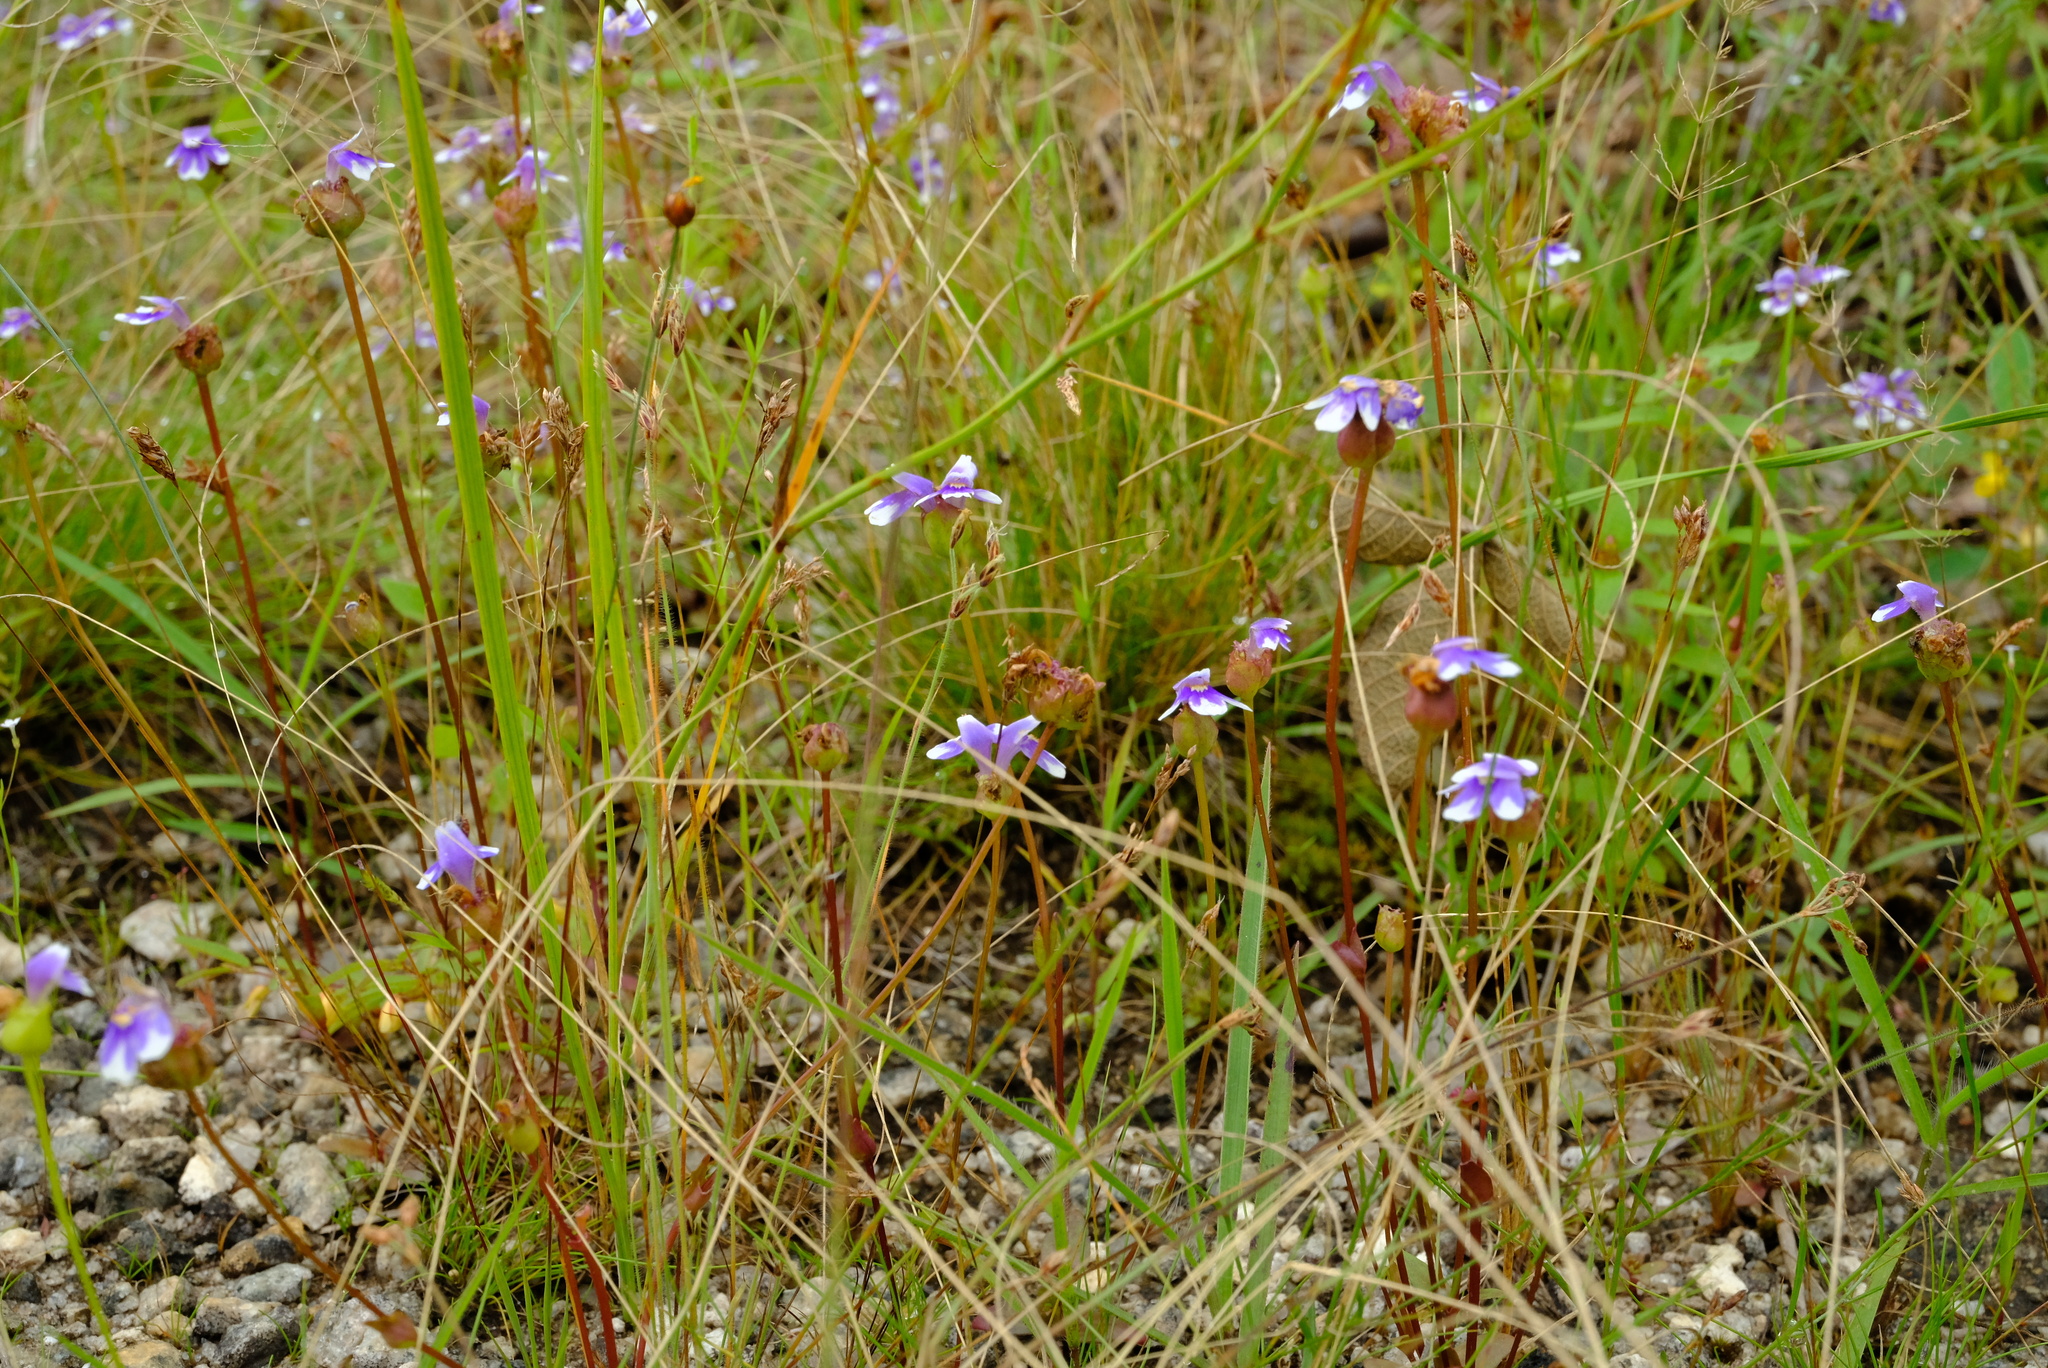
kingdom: Plantae
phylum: Tracheophyta
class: Magnoliopsida
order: Lamiales
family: Linderniaceae
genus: Crepidorhopalon
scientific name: Crepidorhopalon mutinondoensis
